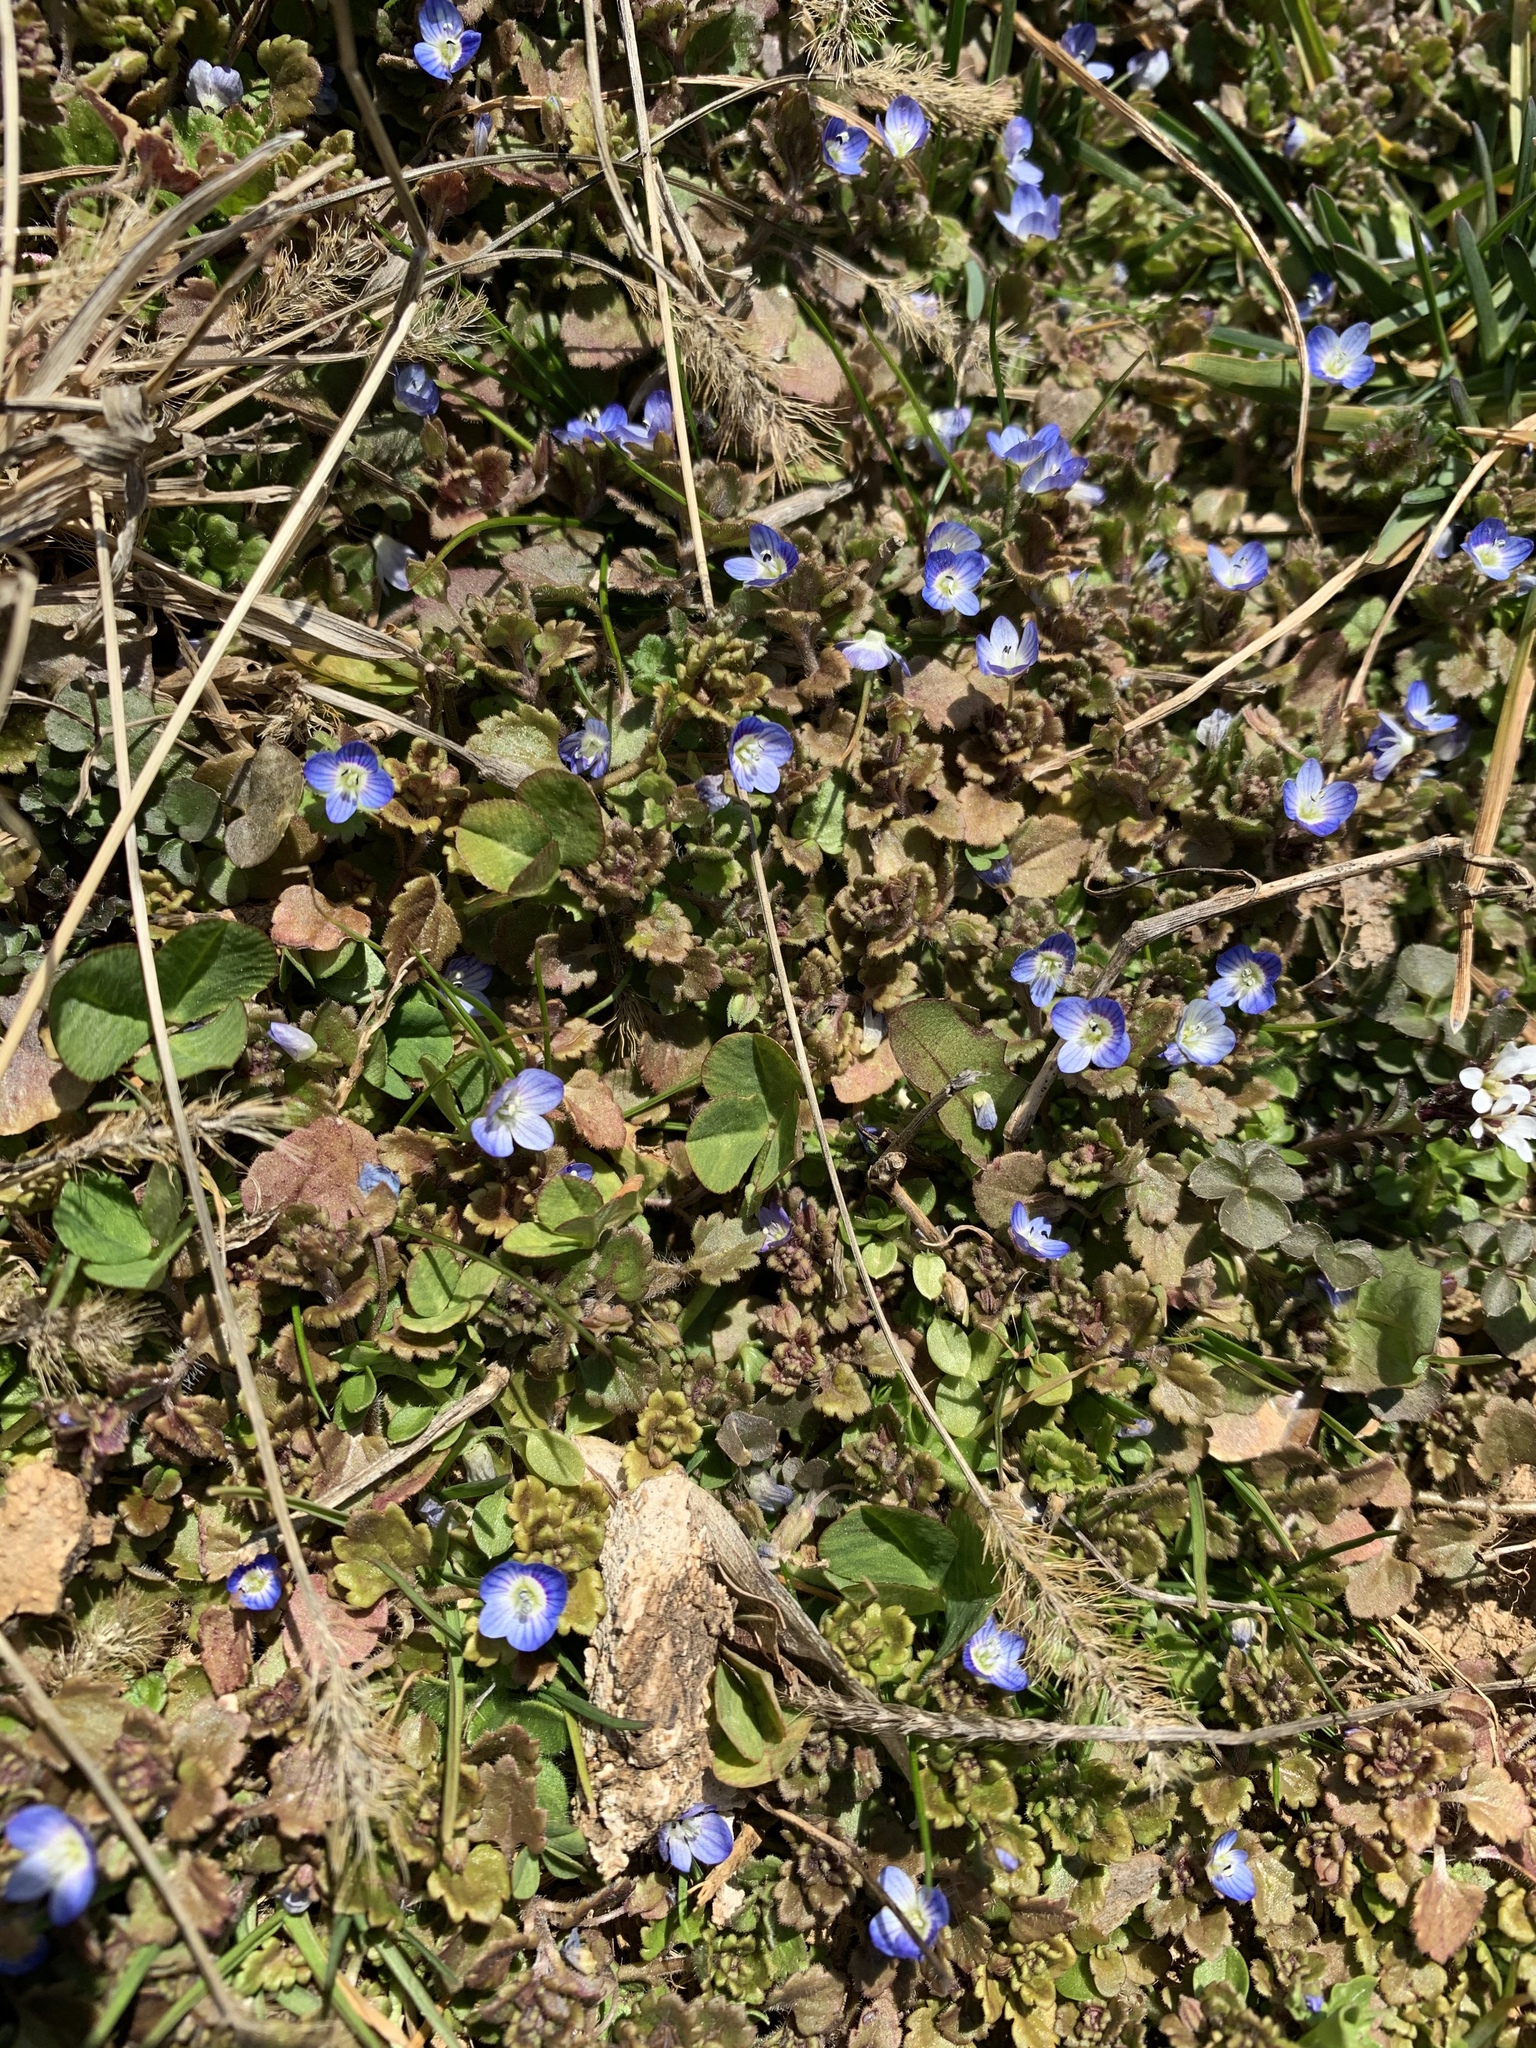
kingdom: Plantae
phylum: Tracheophyta
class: Magnoliopsida
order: Lamiales
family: Plantaginaceae
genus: Veronica
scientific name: Veronica persica
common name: Common field-speedwell
